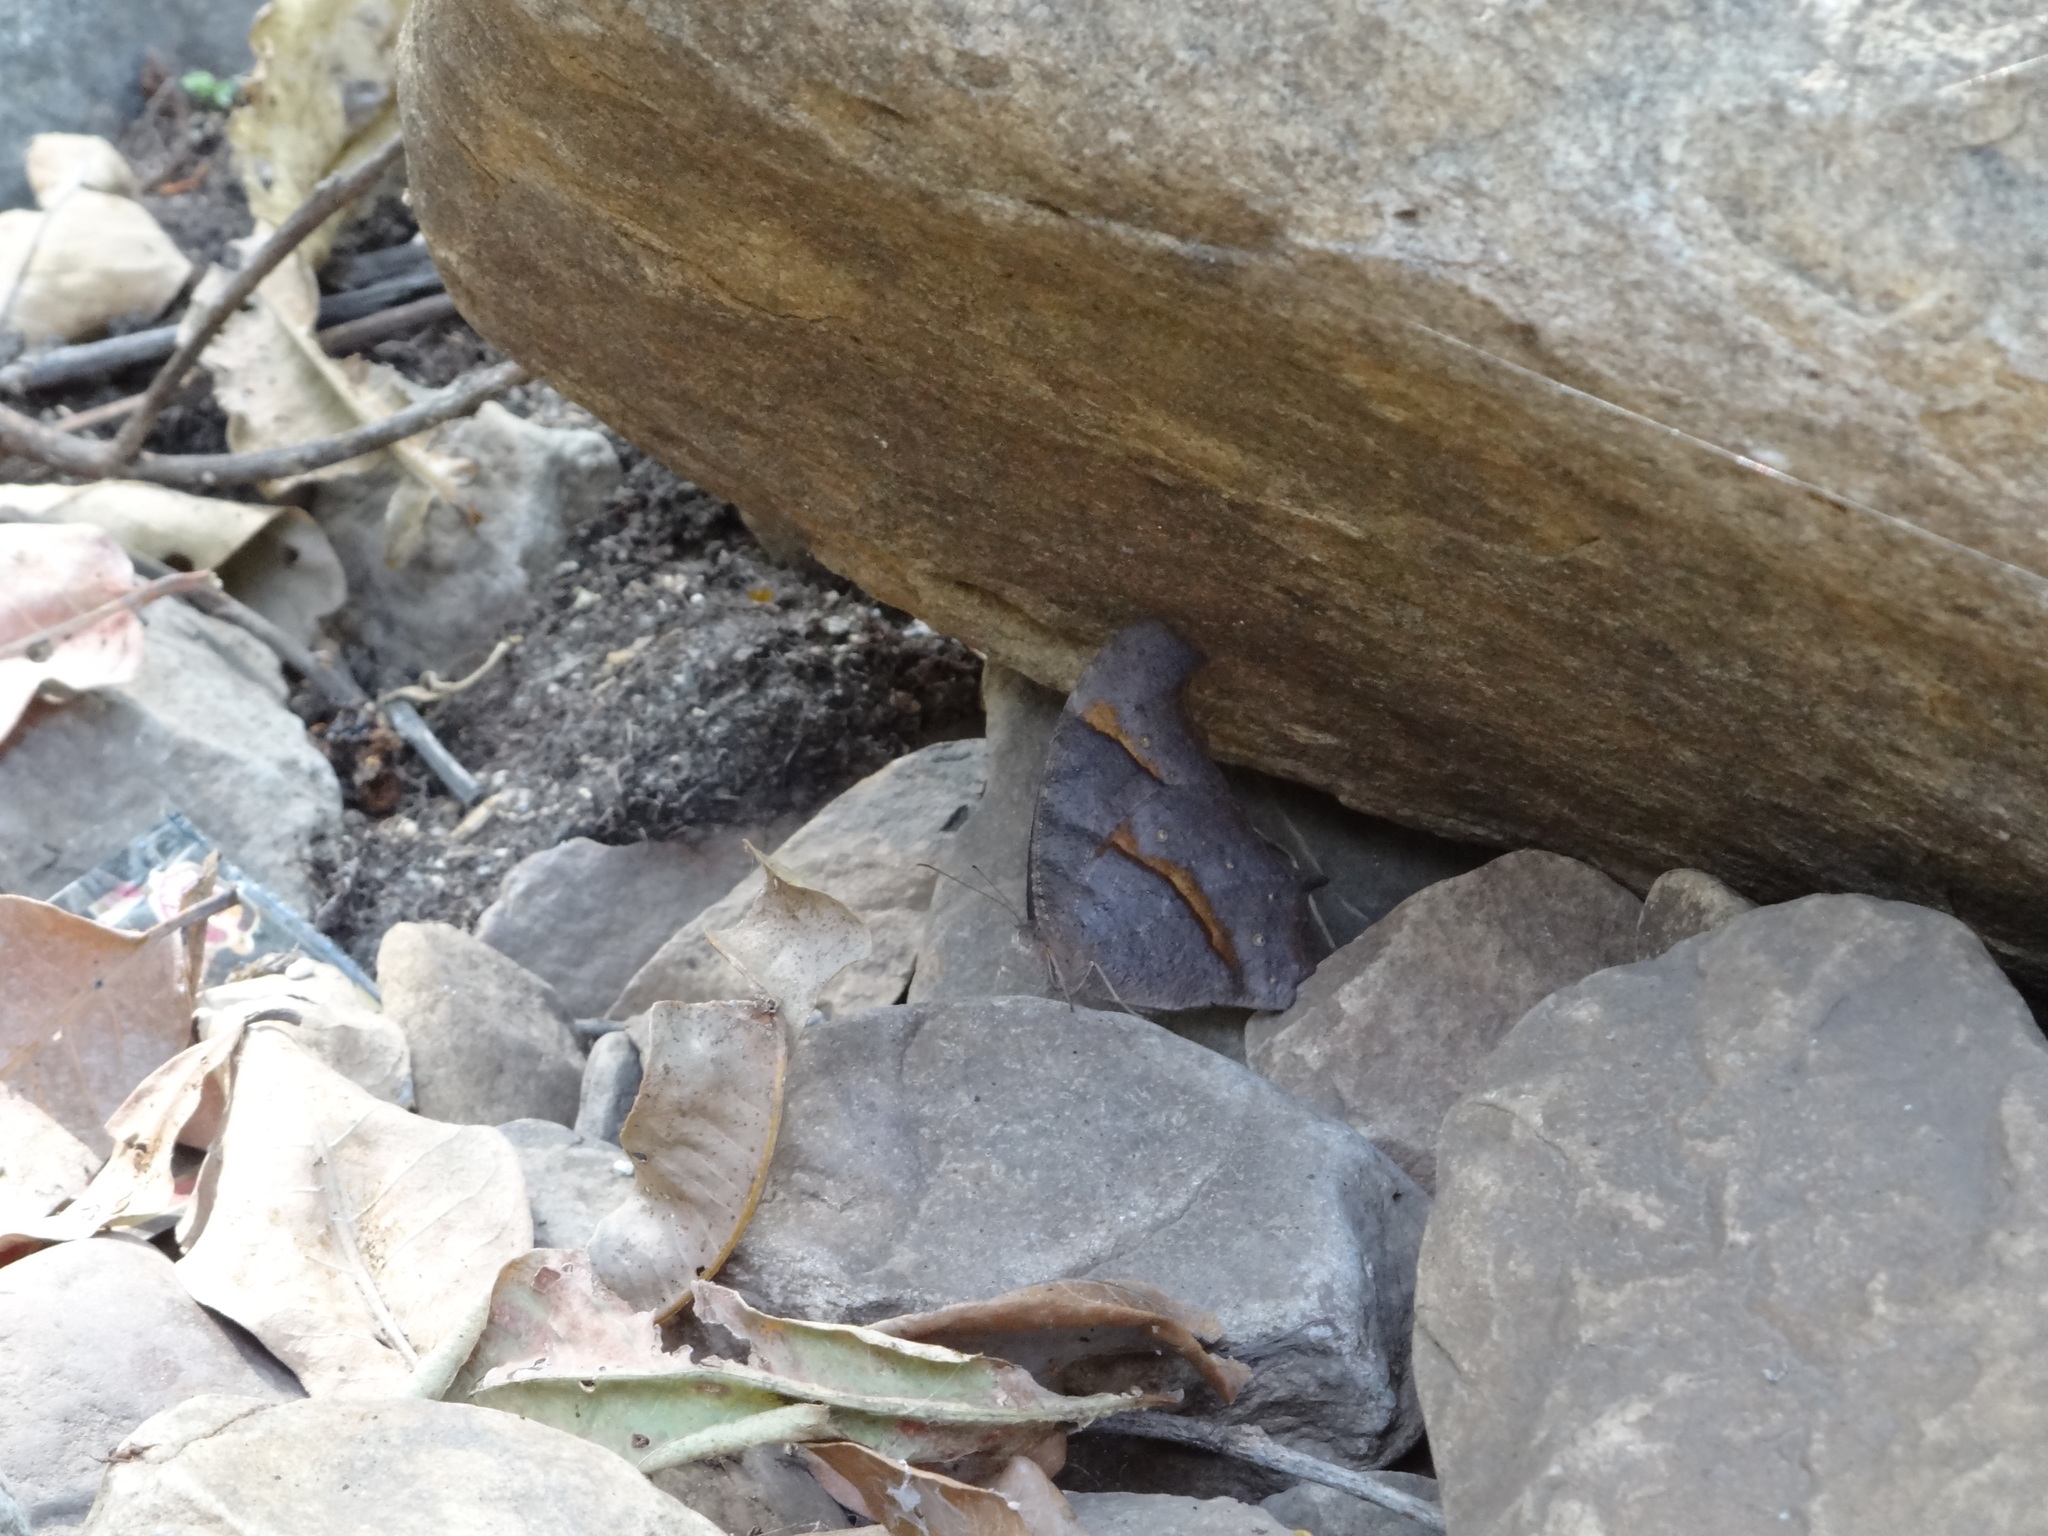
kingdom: Animalia
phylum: Arthropoda
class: Insecta
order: Lepidoptera
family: Nymphalidae
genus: Melanitis
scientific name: Melanitis leda
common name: Twilight brown
